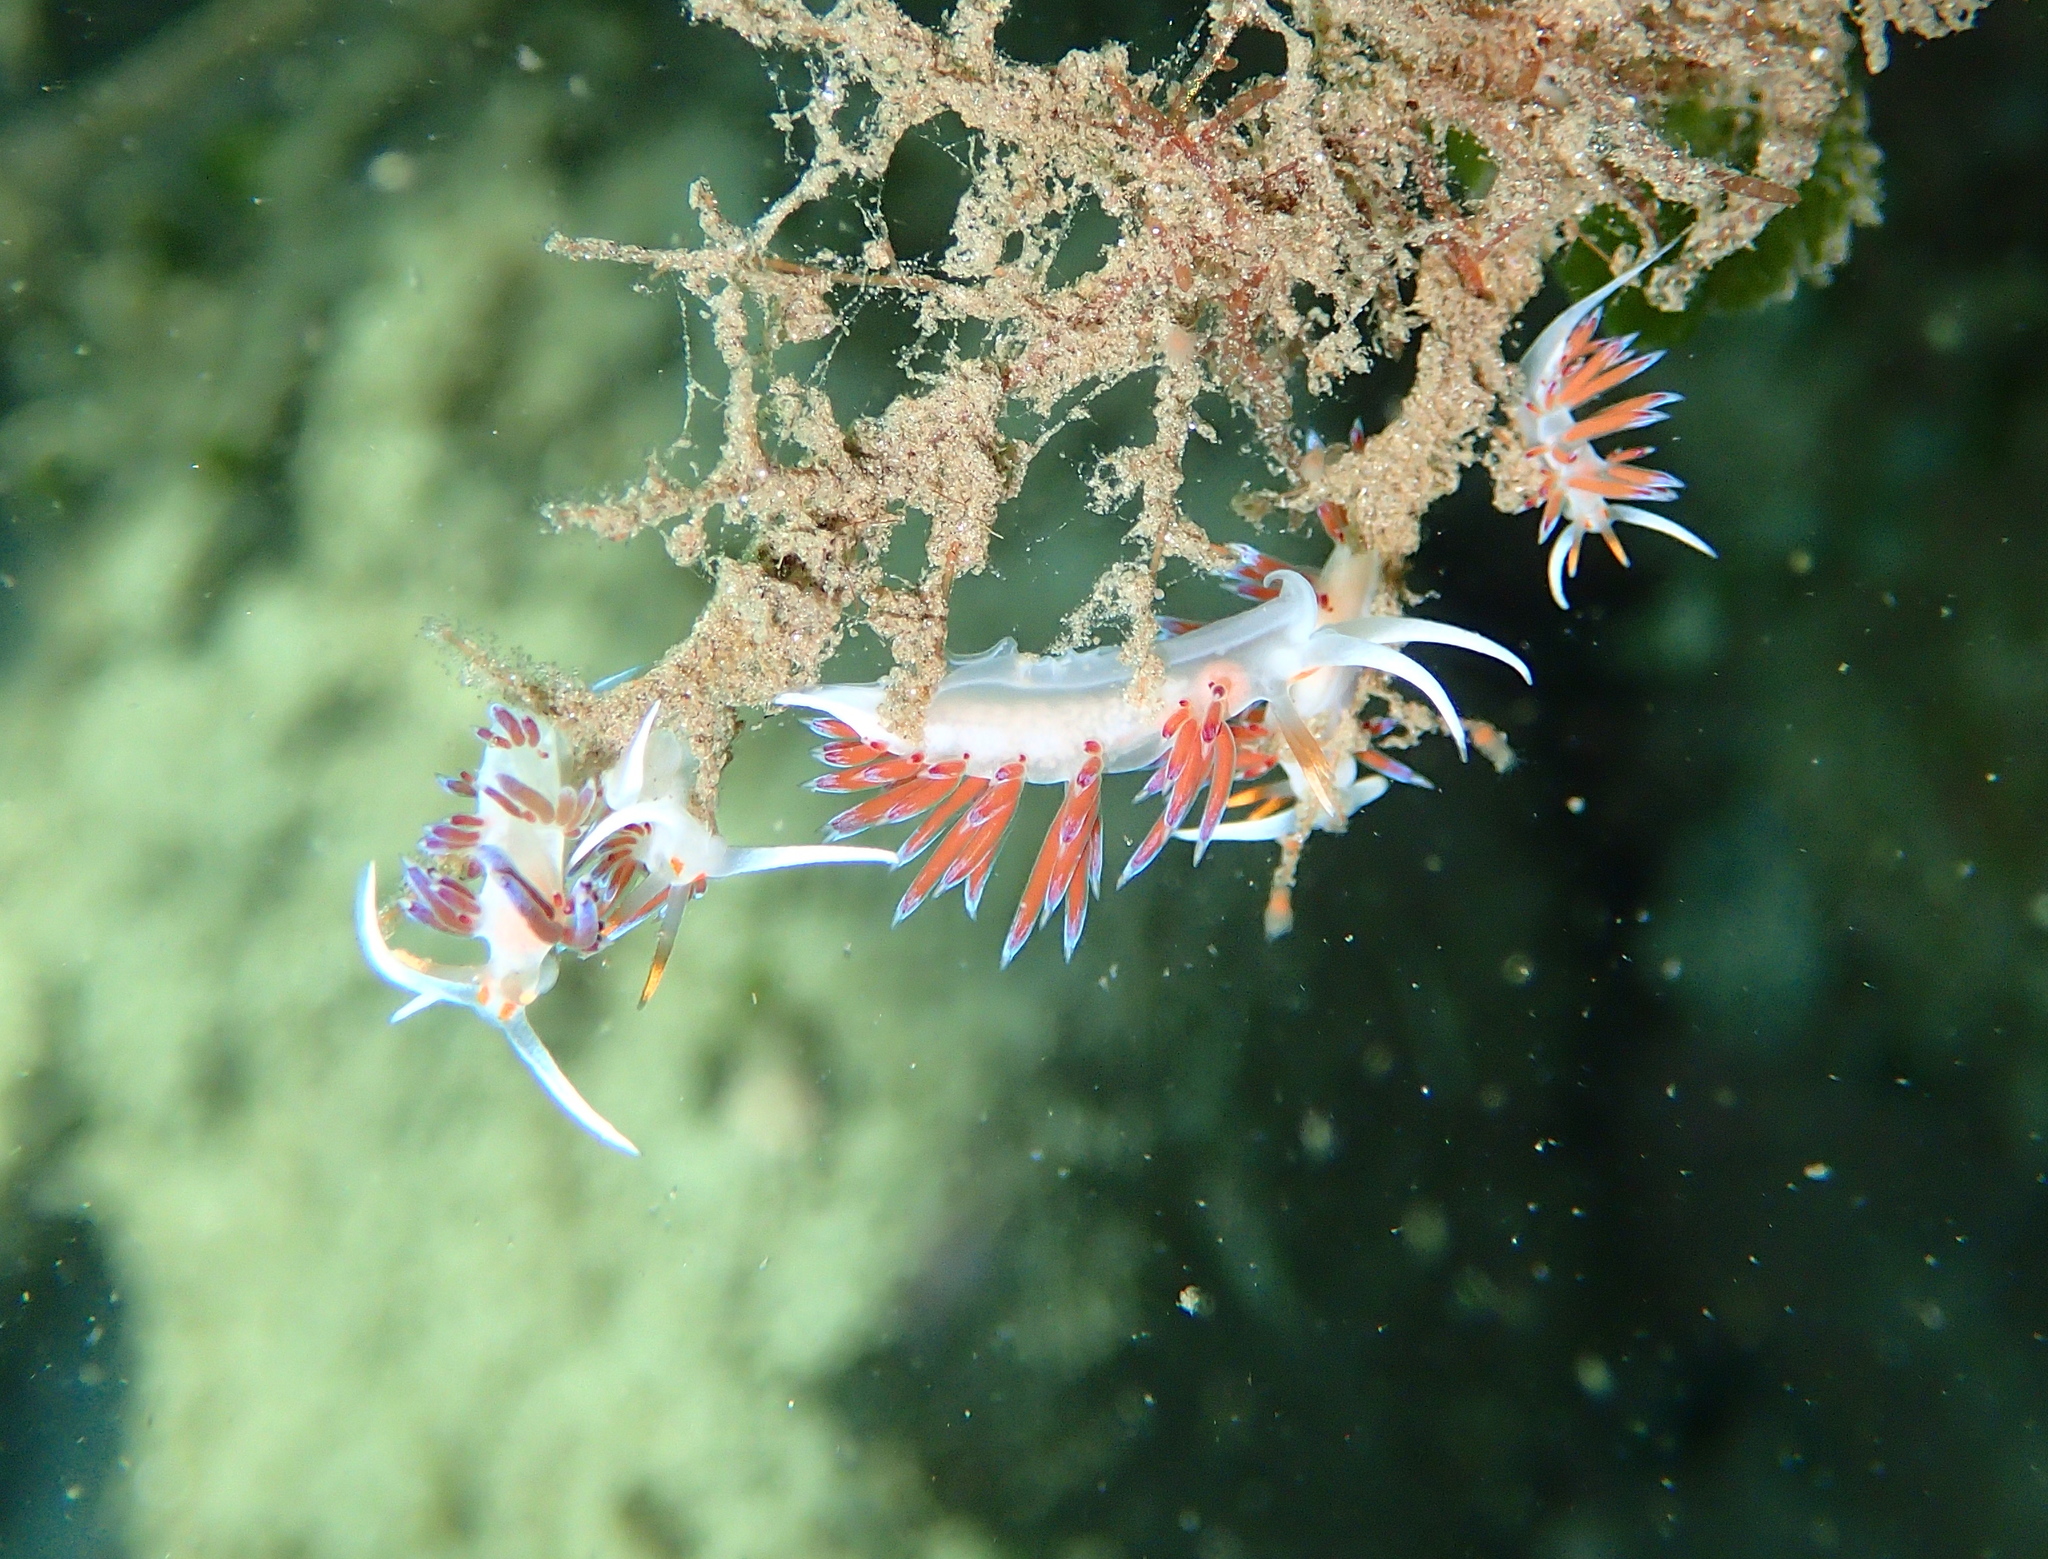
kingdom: Animalia
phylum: Mollusca
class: Gastropoda
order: Nudibranchia
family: Facelinidae
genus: Cratena
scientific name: Cratena peregrina
